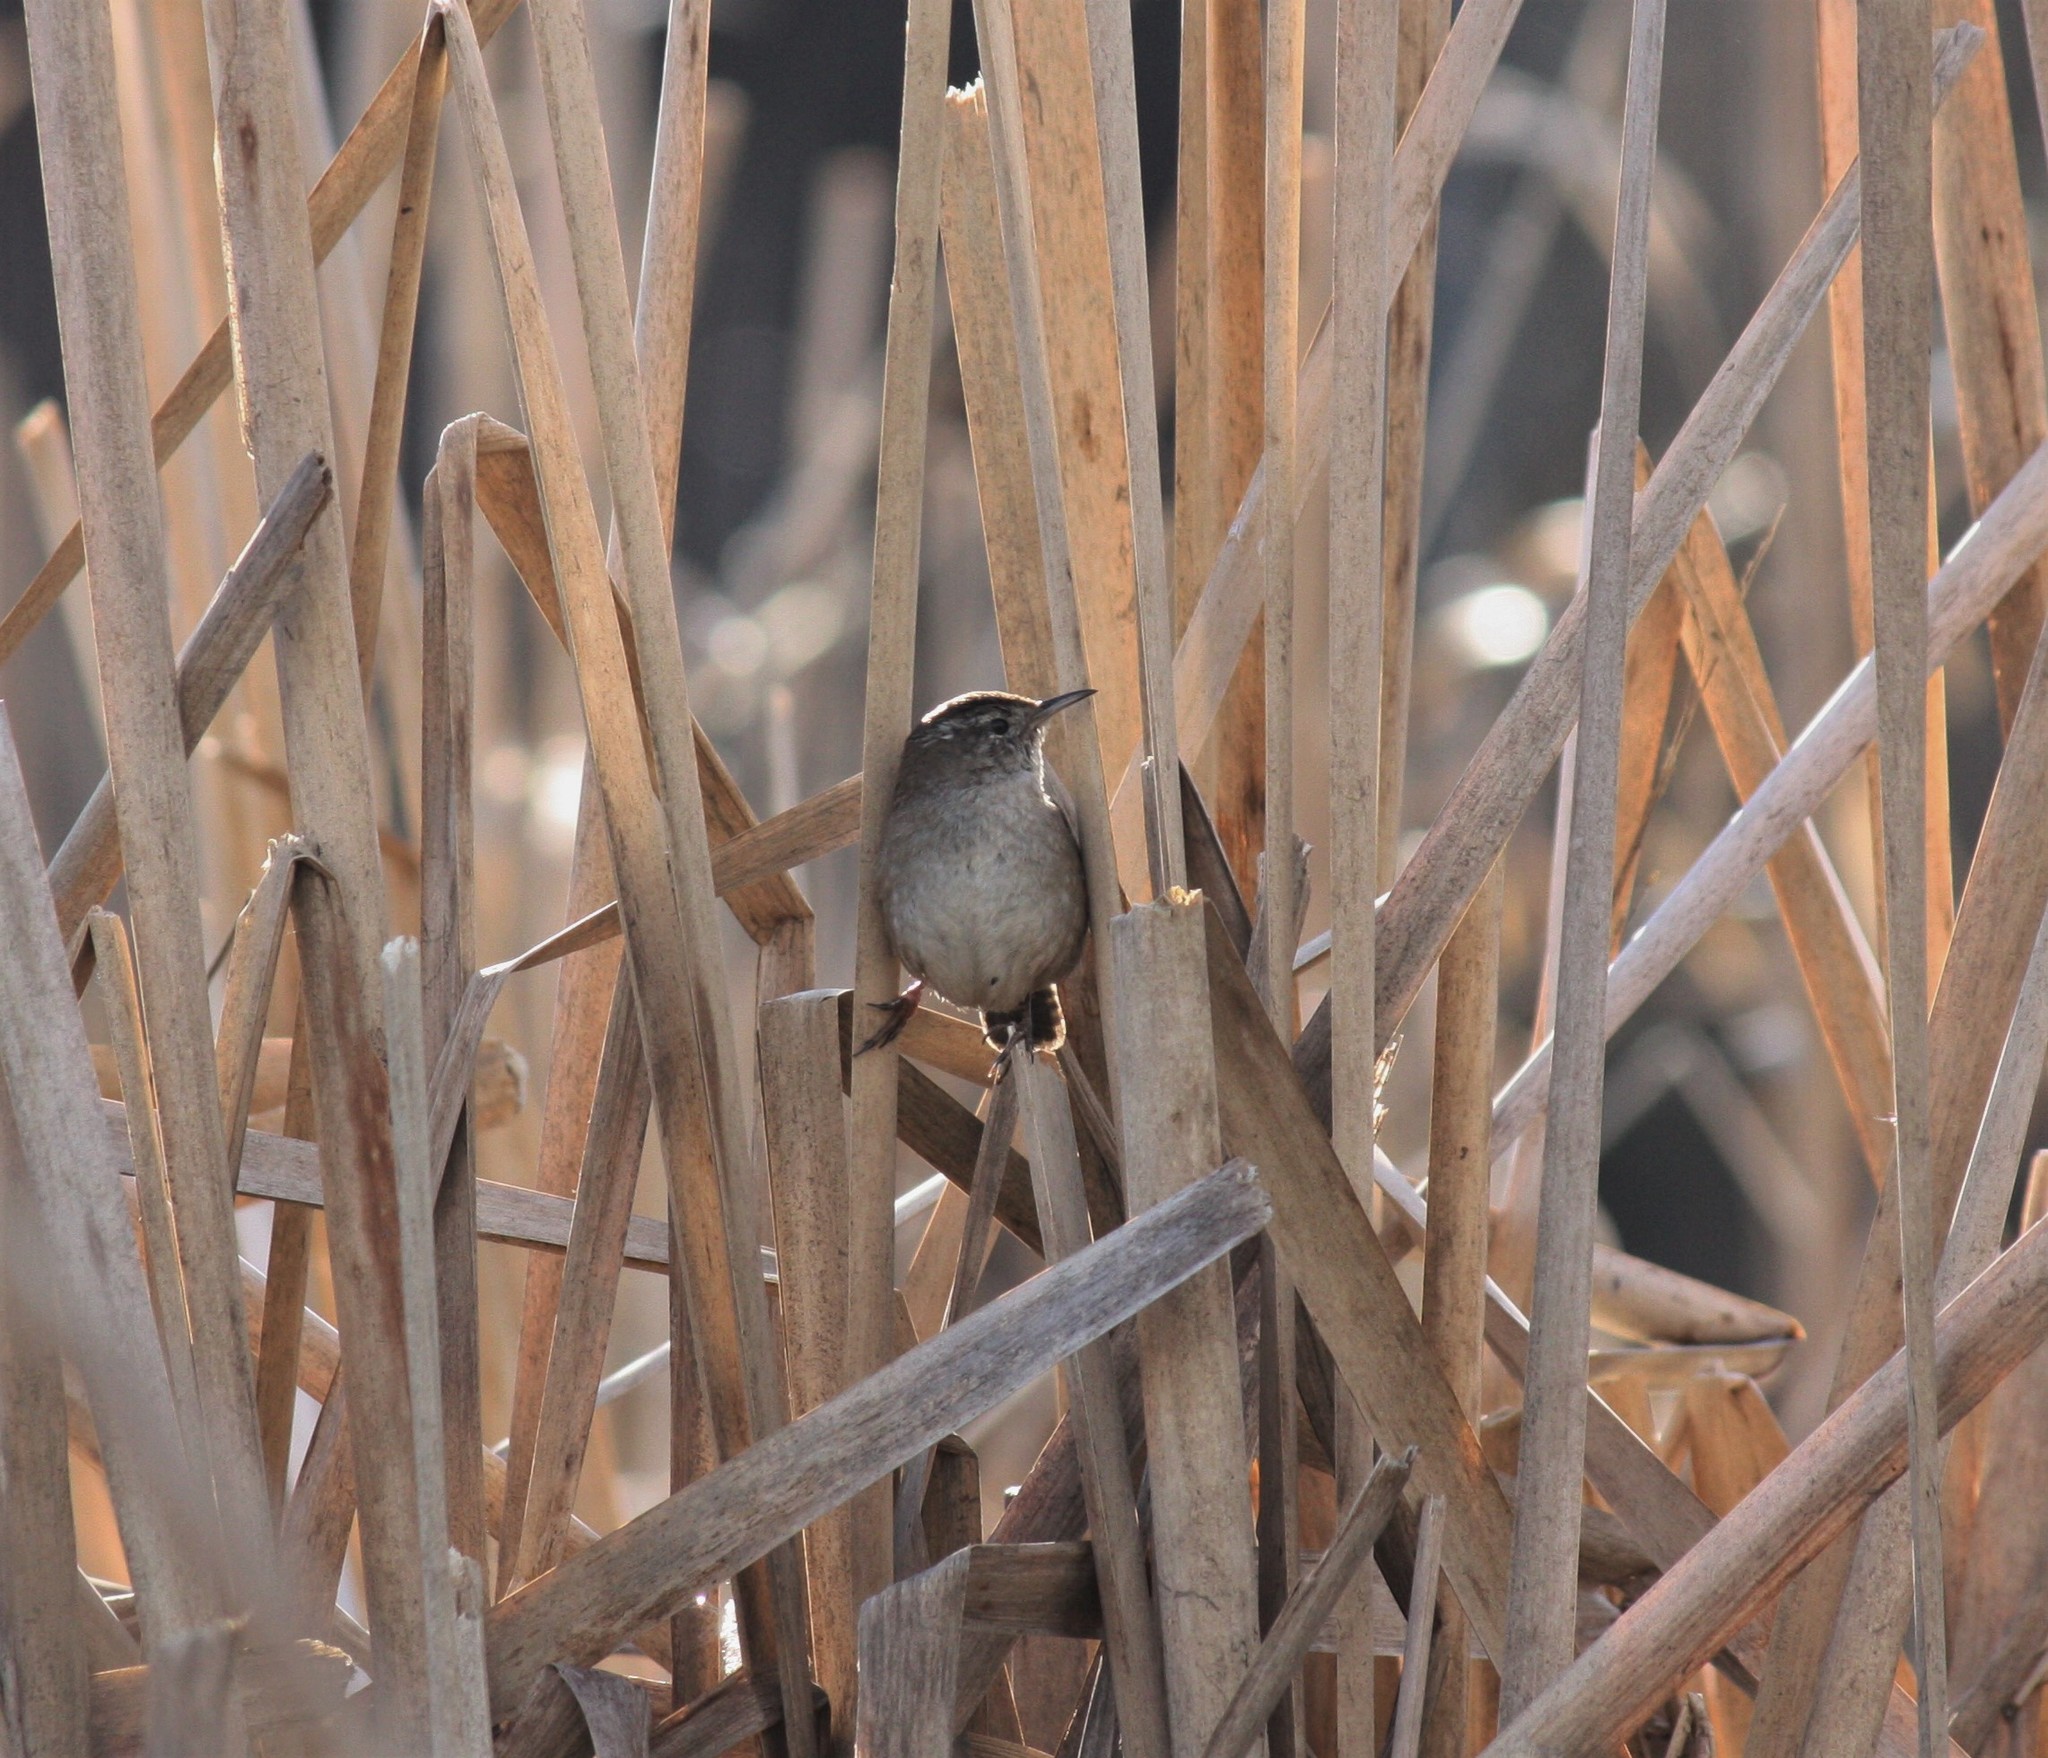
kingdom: Animalia
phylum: Chordata
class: Aves
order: Passeriformes
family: Troglodytidae
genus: Cistothorus
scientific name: Cistothorus palustris
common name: Marsh wren
